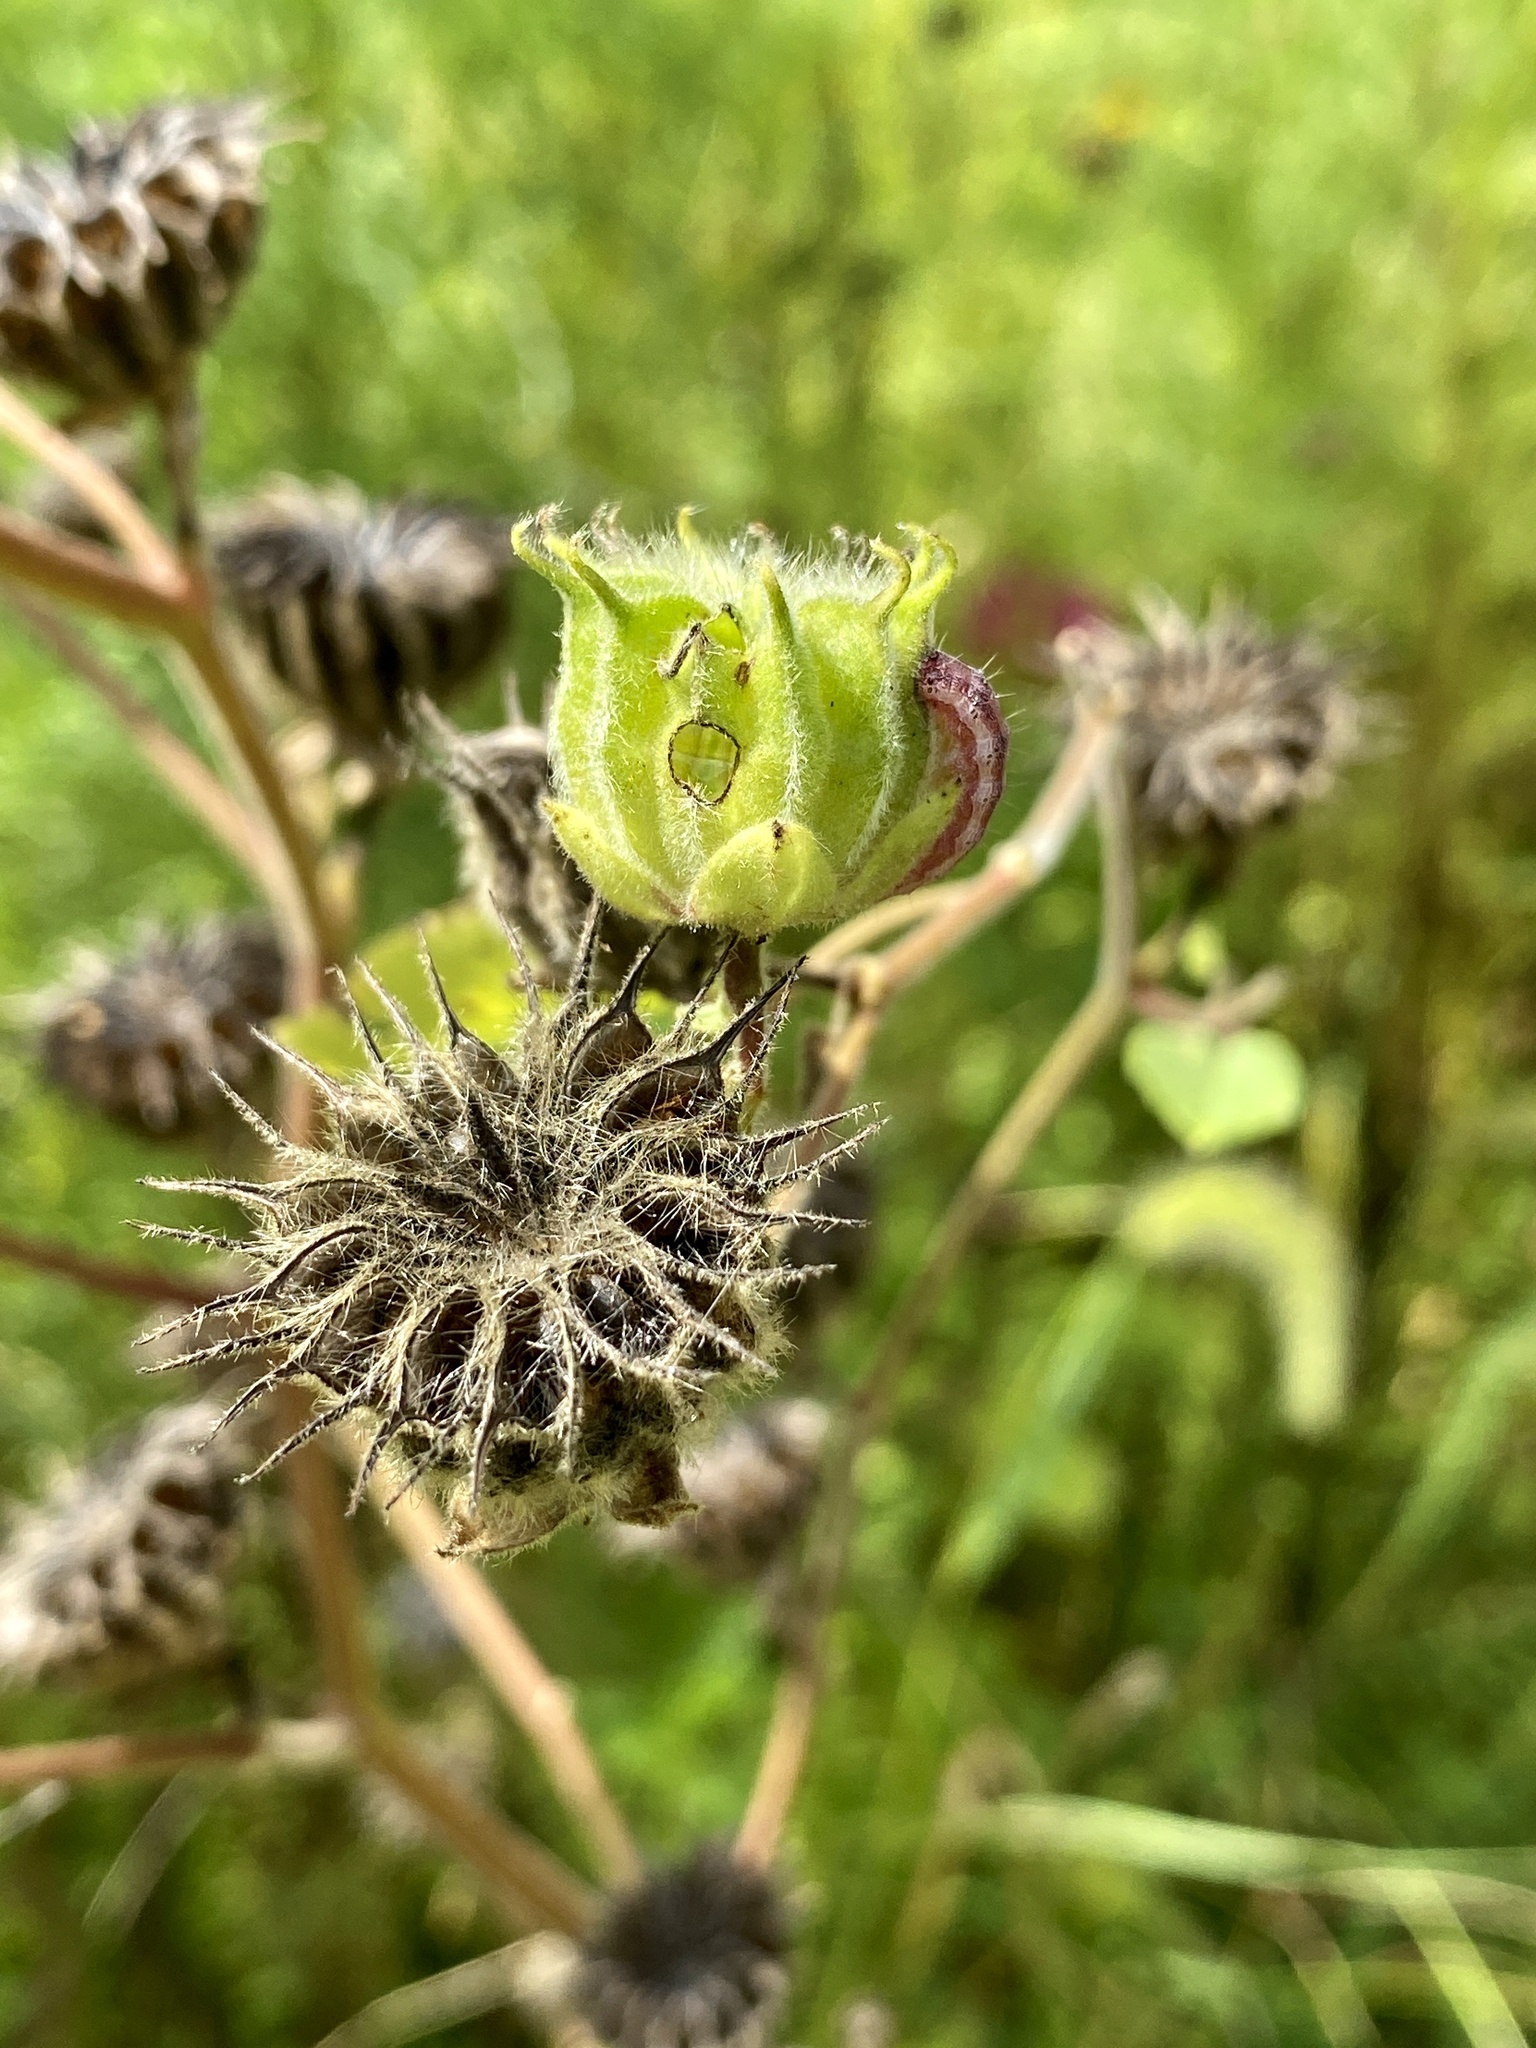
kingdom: Plantae
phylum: Tracheophyta
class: Magnoliopsida
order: Malvales
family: Malvaceae
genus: Abutilon
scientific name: Abutilon theophrasti
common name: Velvetleaf
